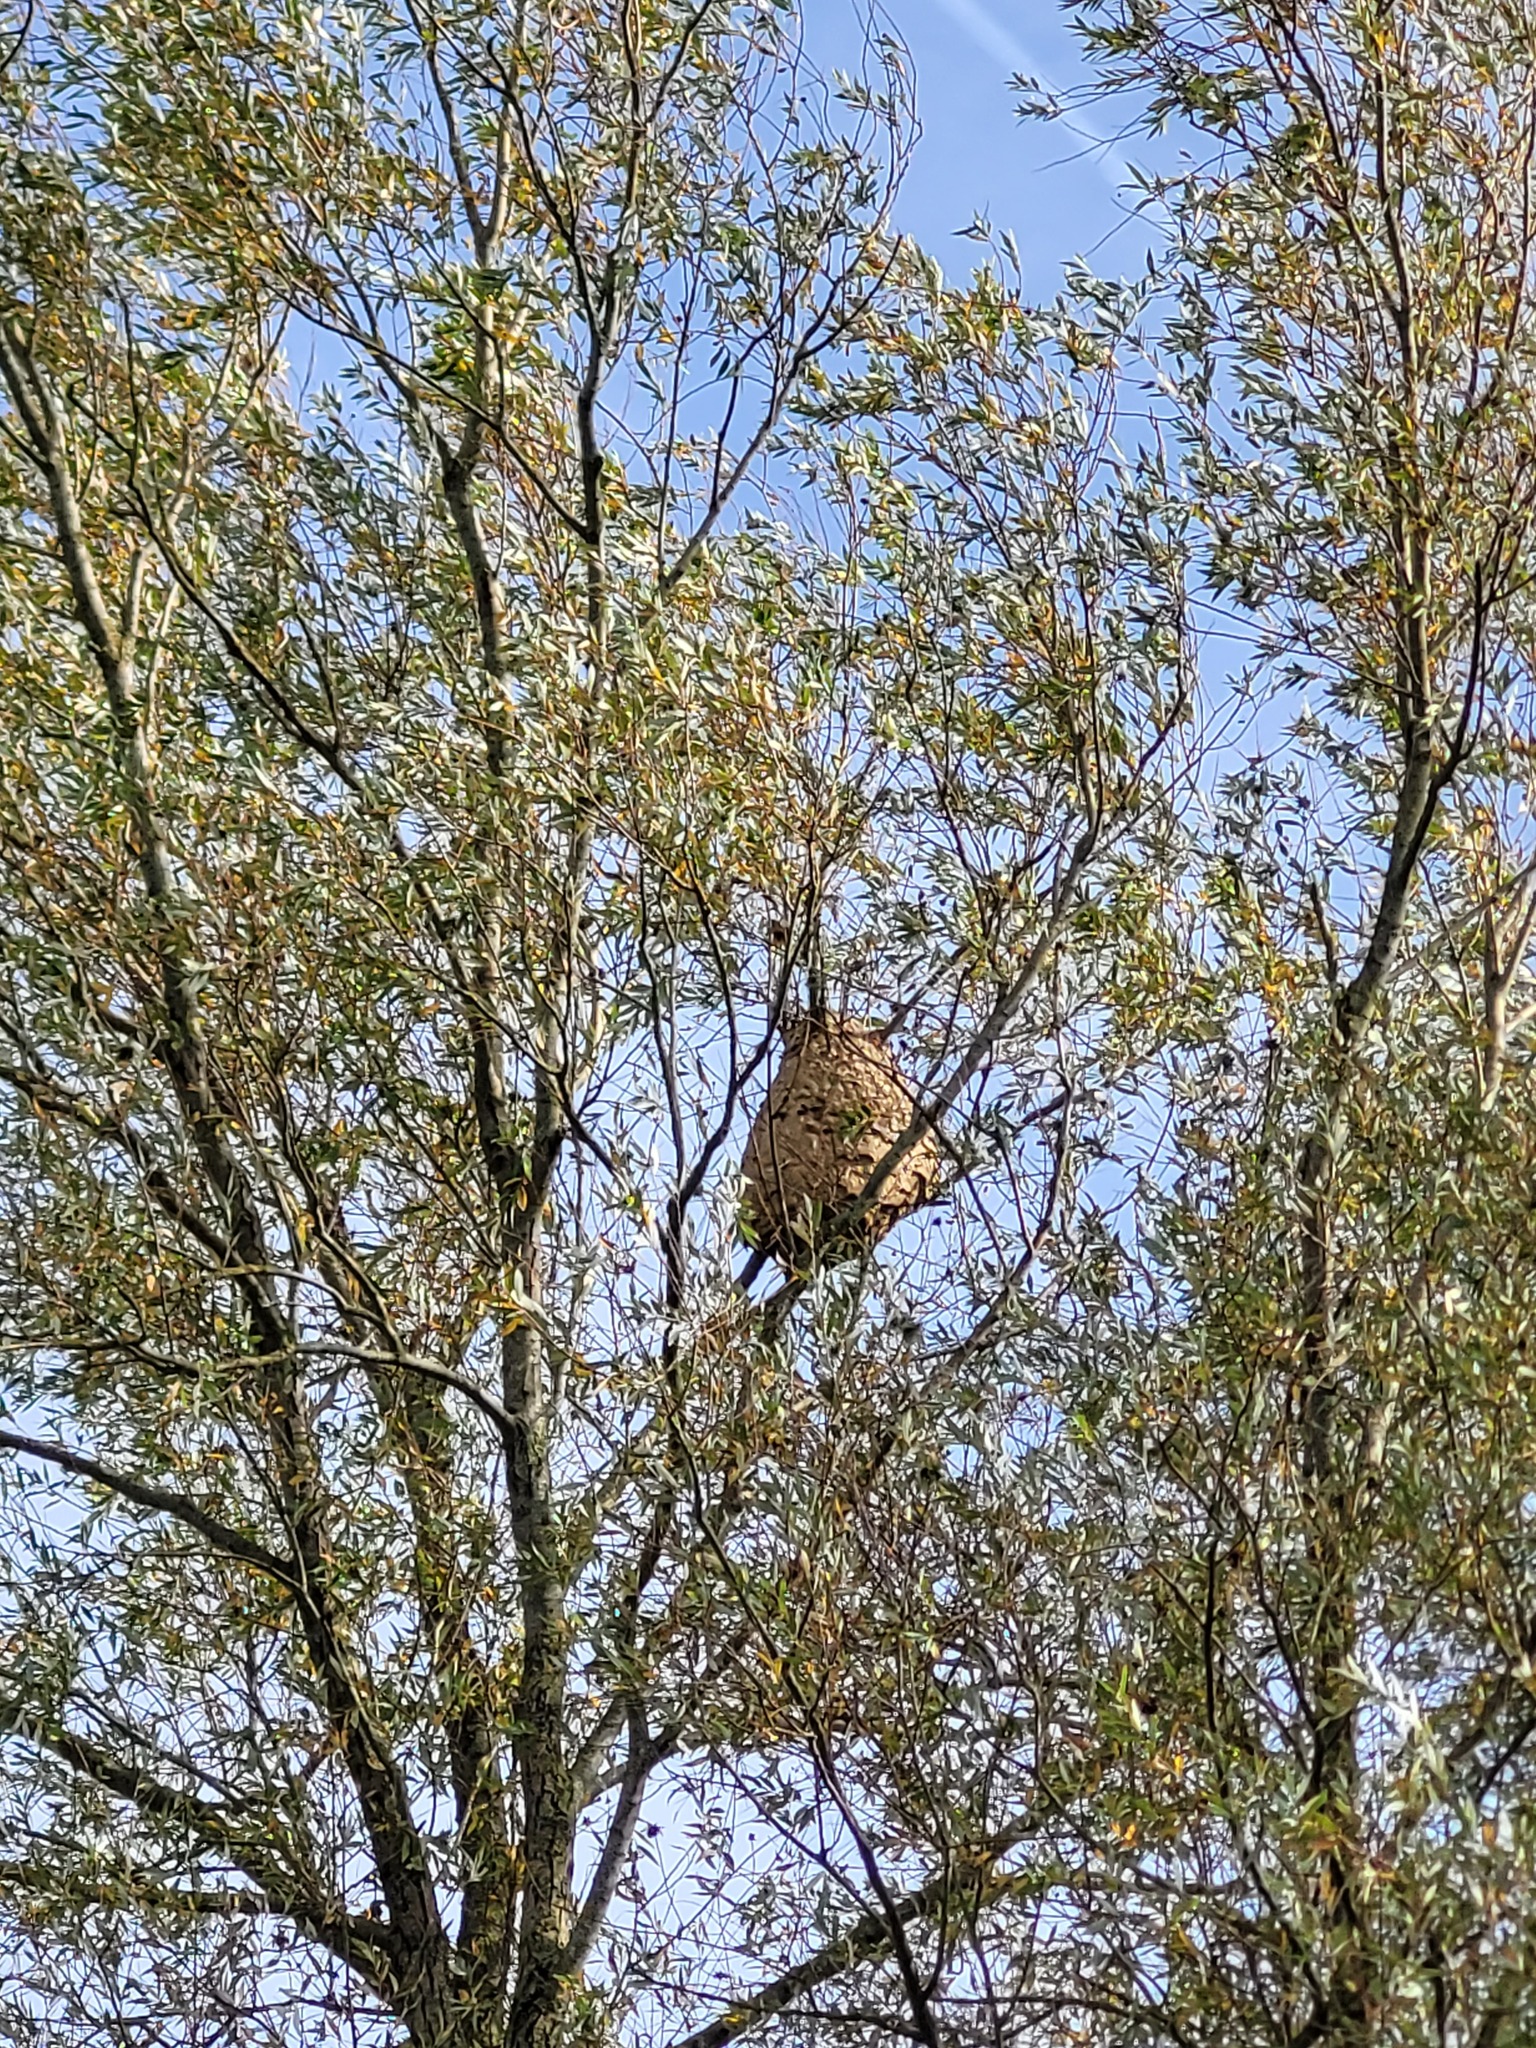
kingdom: Animalia
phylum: Arthropoda
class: Insecta
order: Hymenoptera
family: Vespidae
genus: Vespa
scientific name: Vespa velutina
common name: Asian hornet
